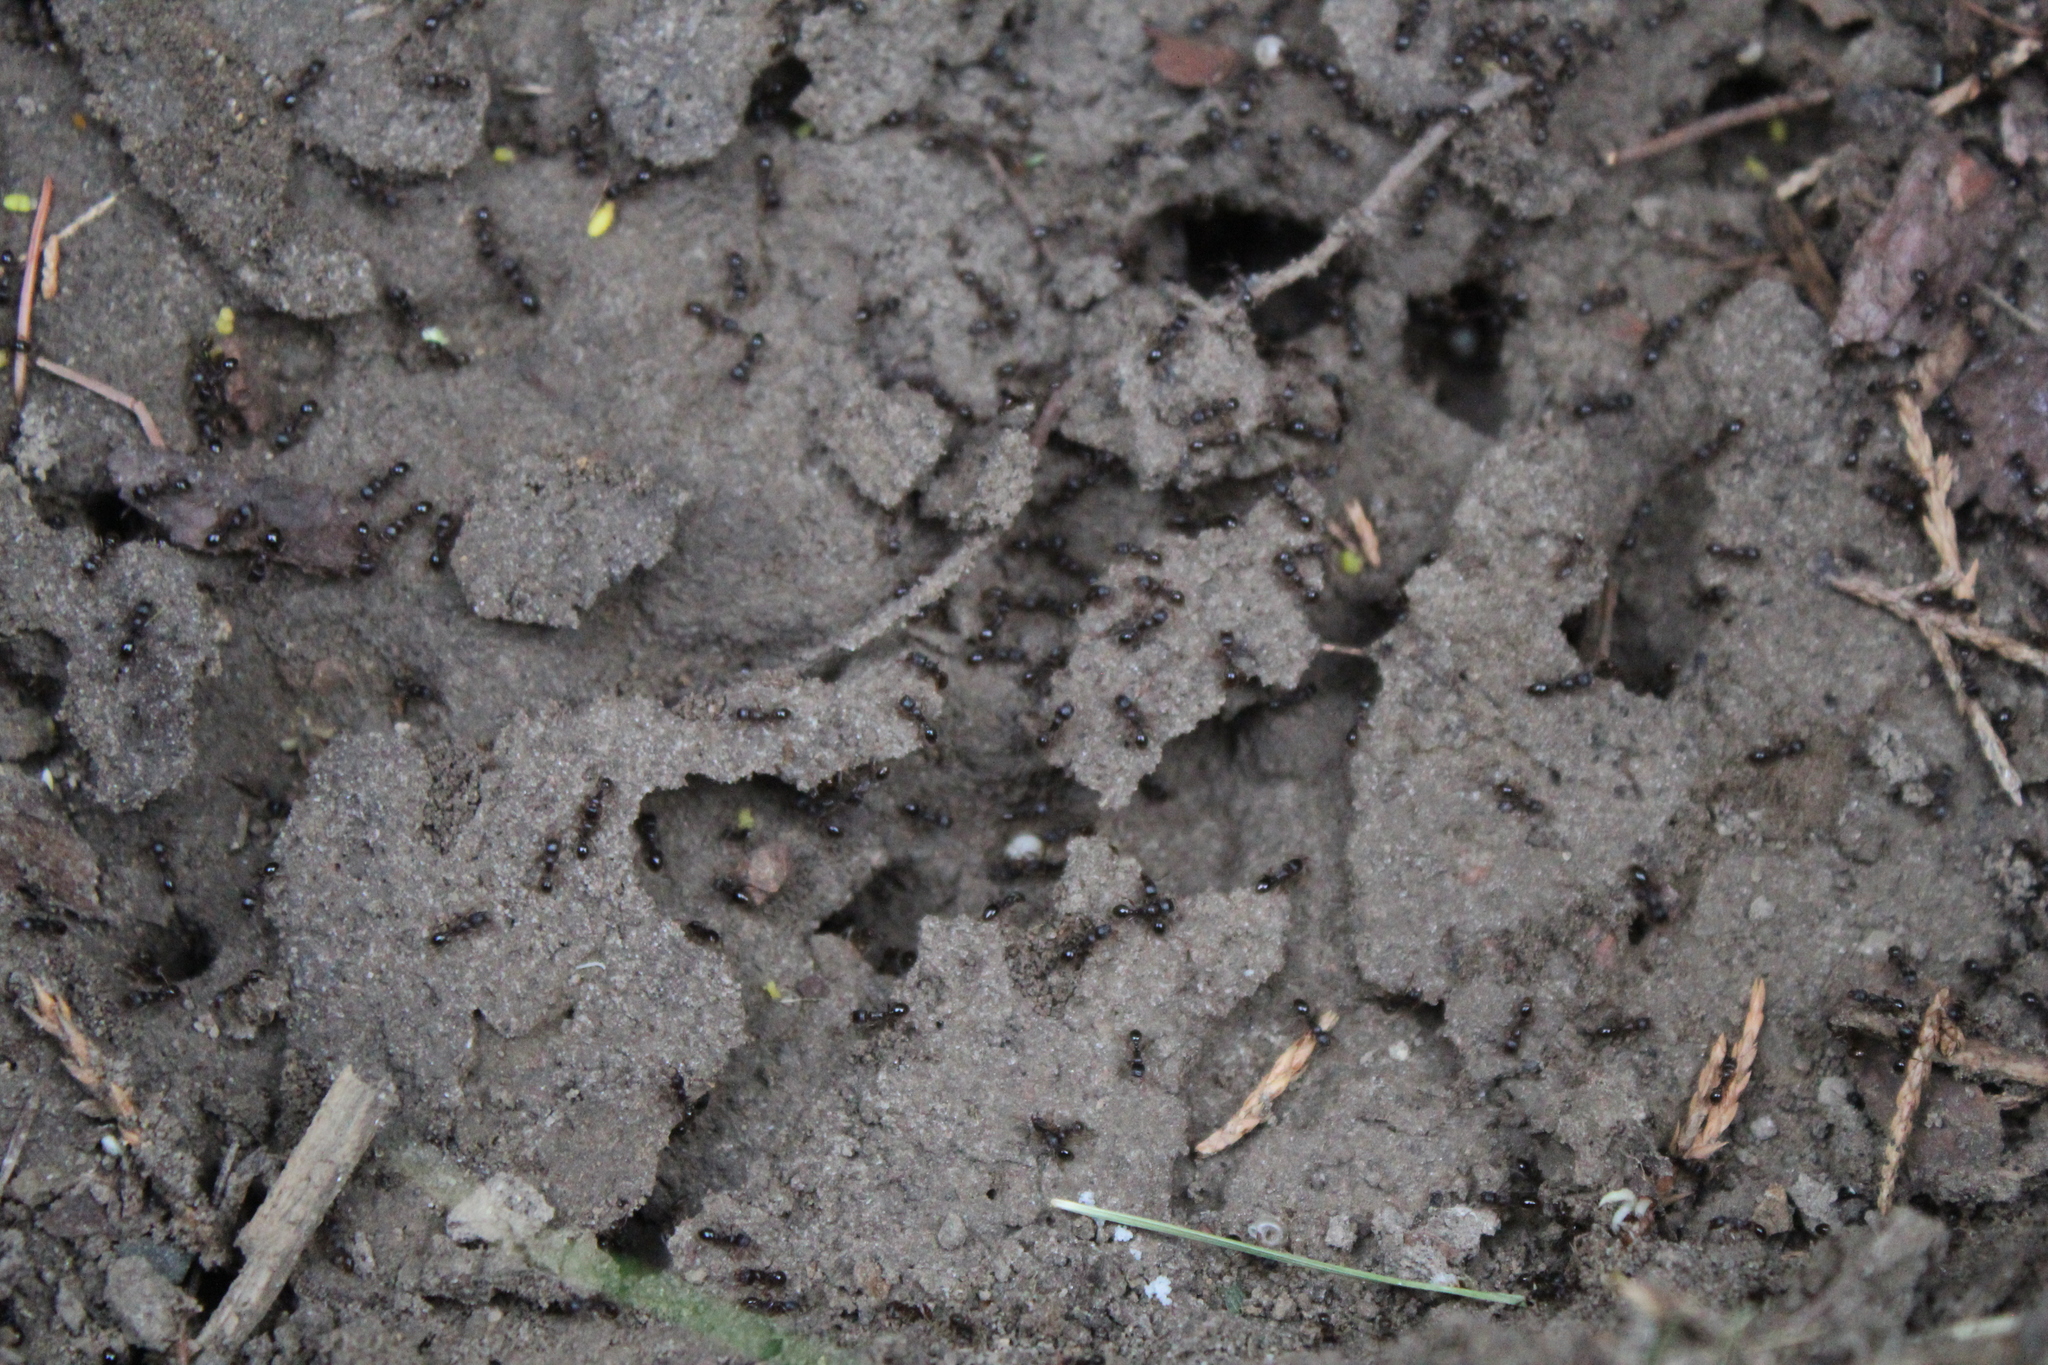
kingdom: Animalia
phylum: Arthropoda
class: Insecta
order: Hymenoptera
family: Formicidae
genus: Tetramorium
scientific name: Tetramorium immigrans
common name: Pavement ant
